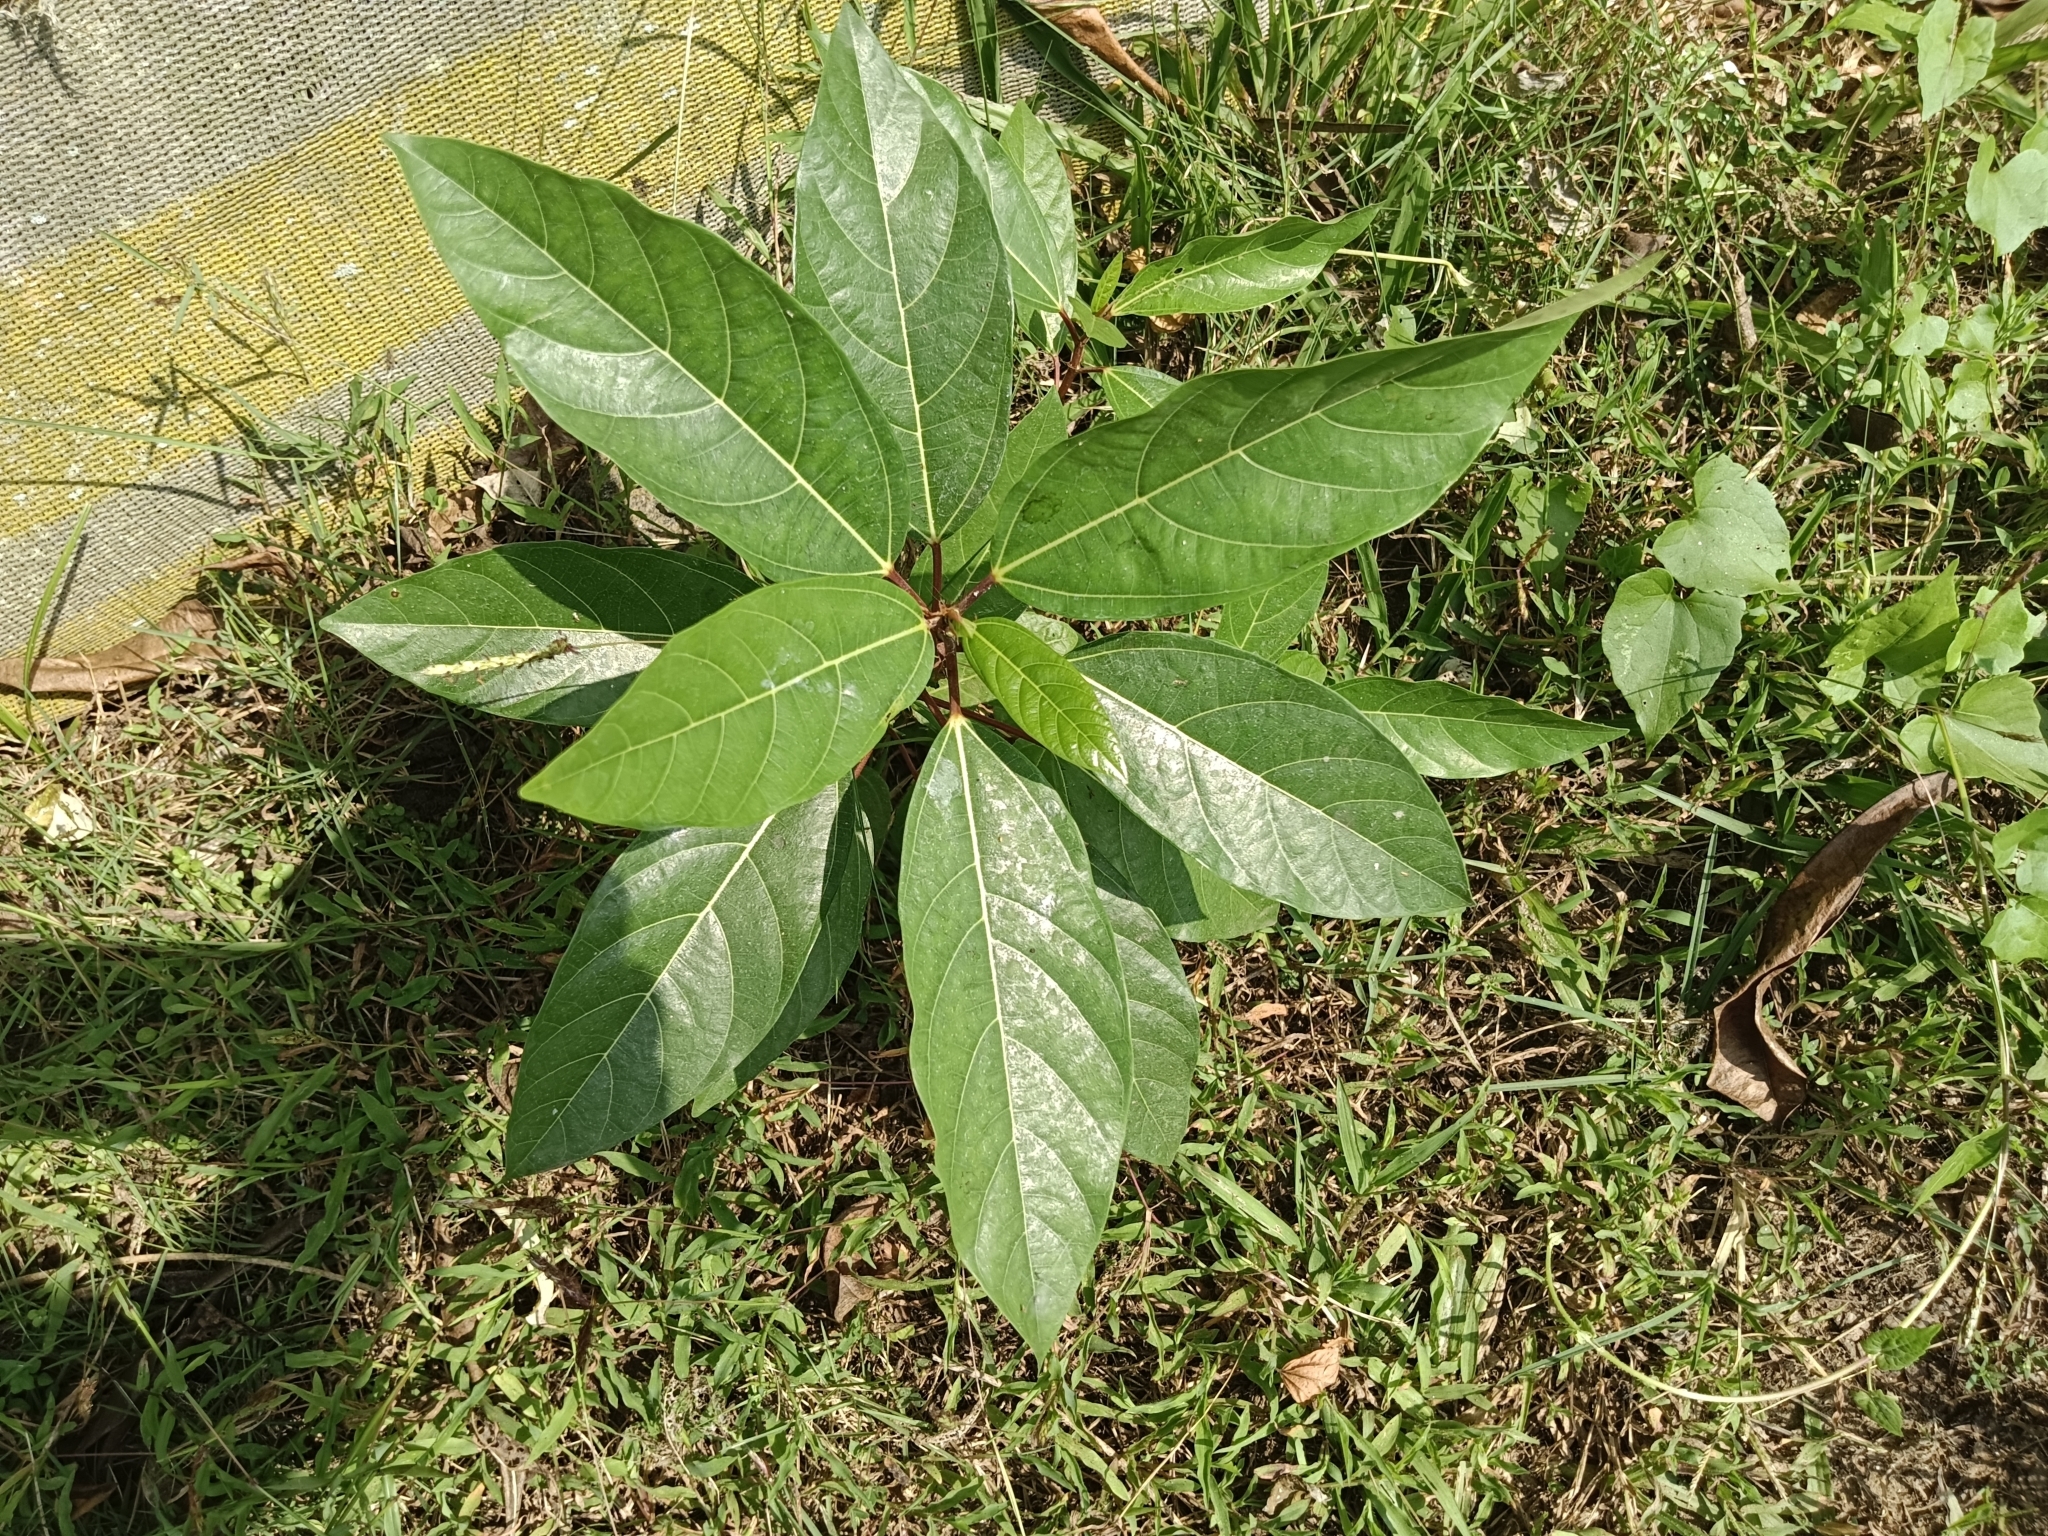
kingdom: Plantae
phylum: Tracheophyta
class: Magnoliopsida
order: Rosales
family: Moraceae
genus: Ficus
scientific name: Ficus racemosa
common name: Cluster fig
